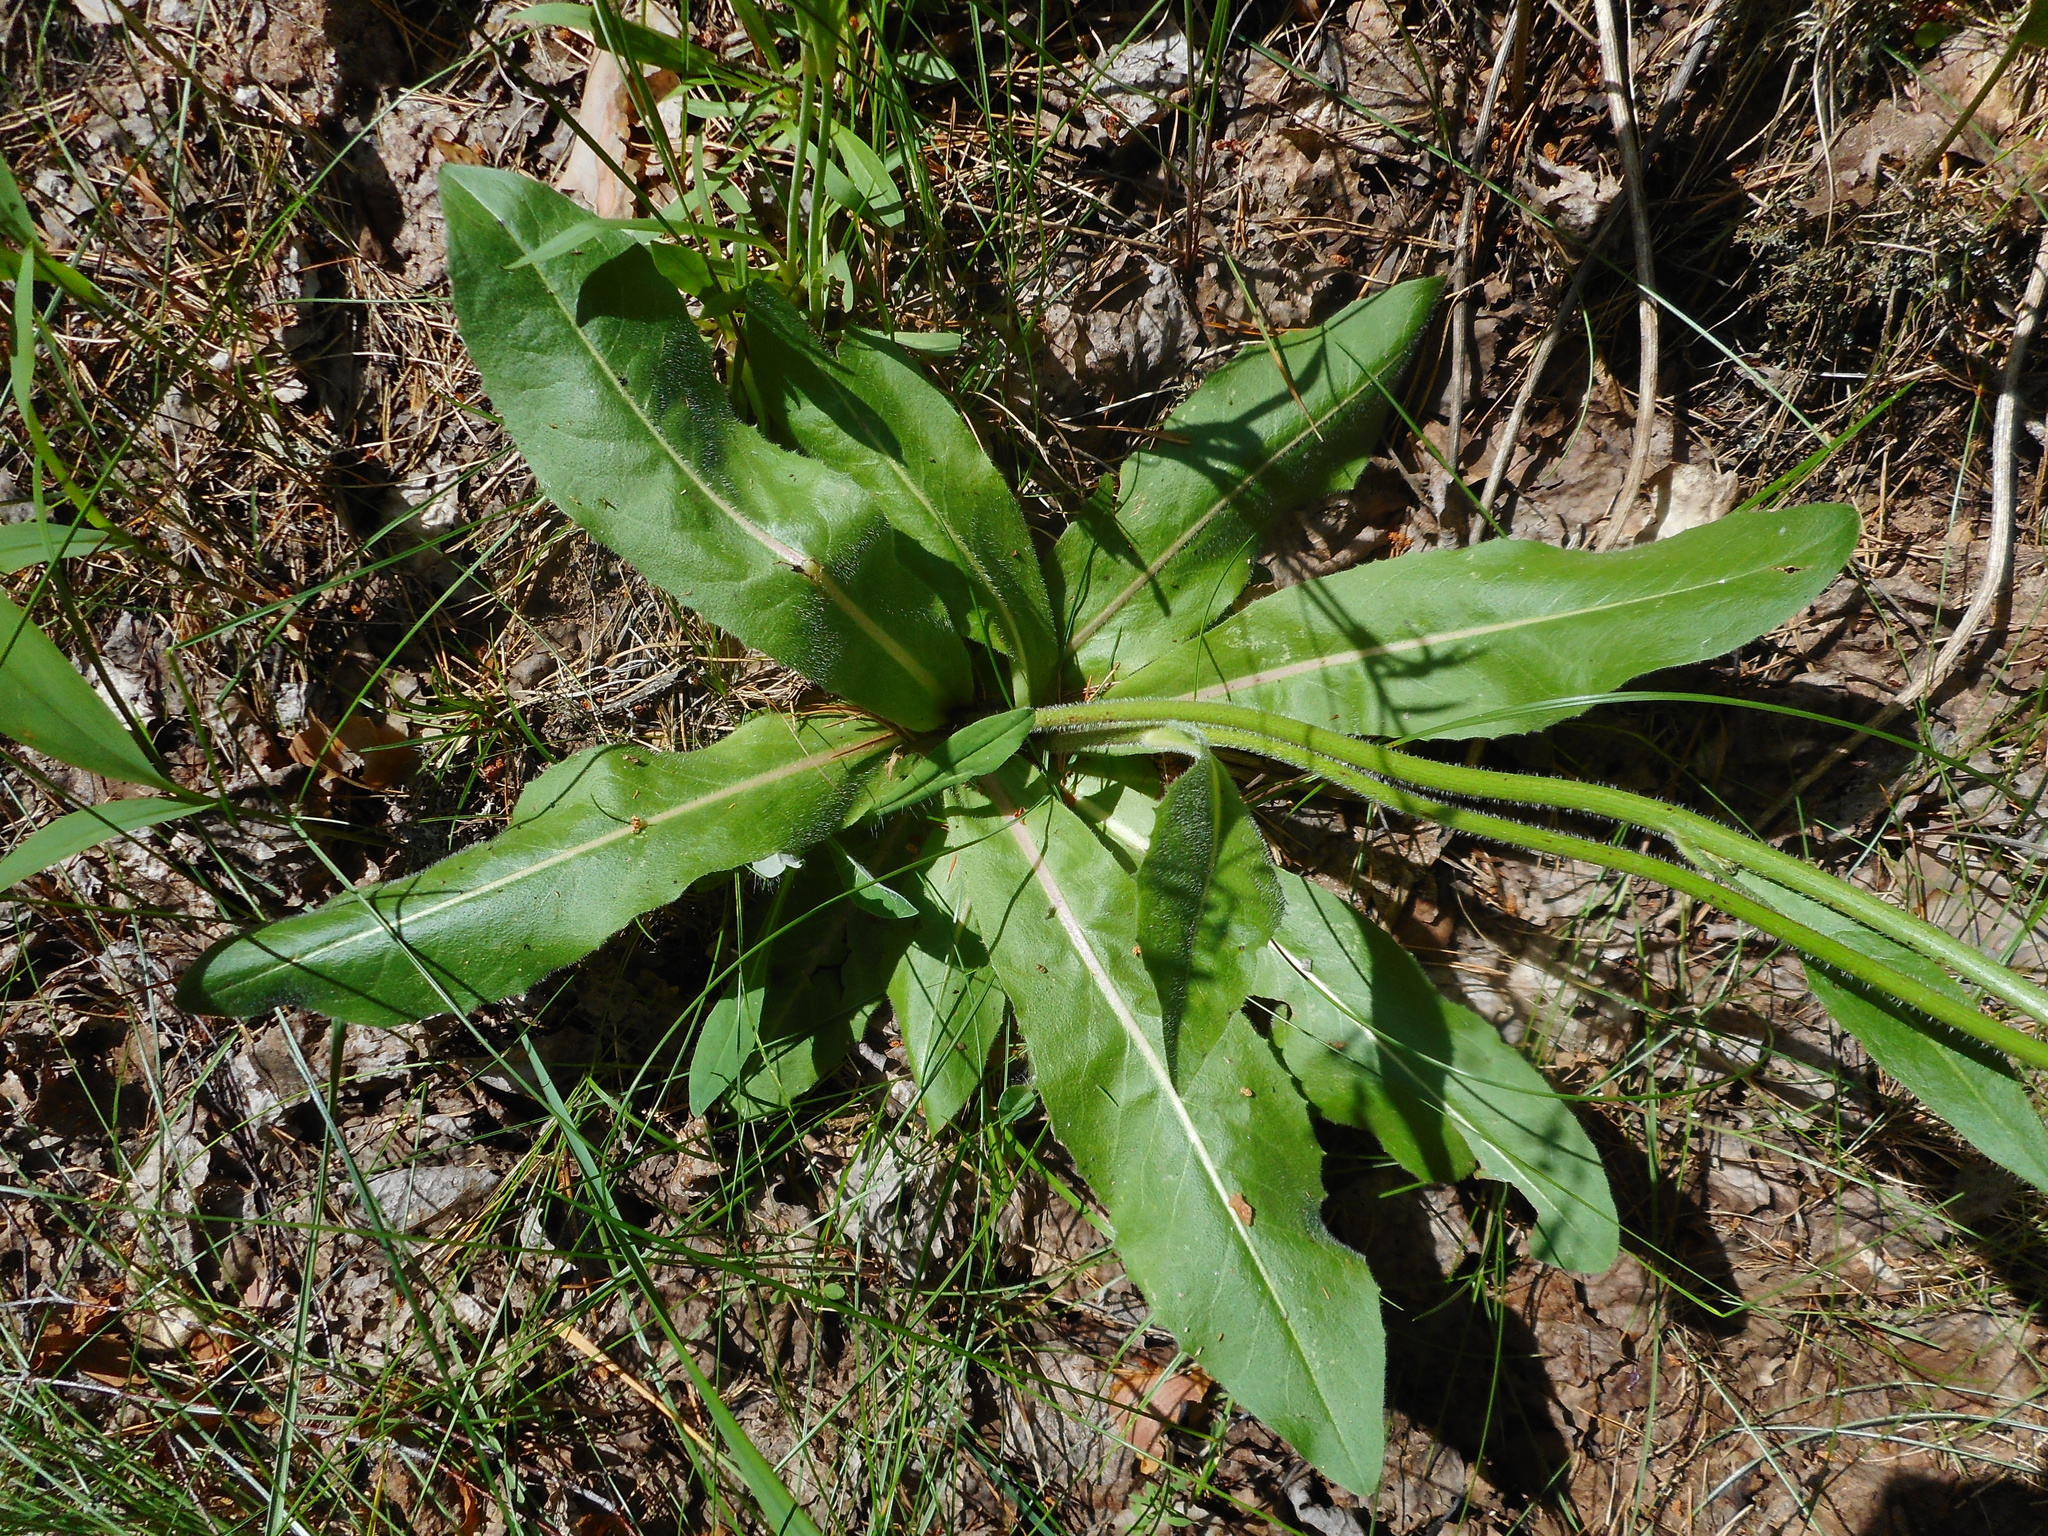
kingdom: Plantae
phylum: Tracheophyta
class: Magnoliopsida
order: Asterales
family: Asteraceae
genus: Trommsdorffia
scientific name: Trommsdorffia maculata
